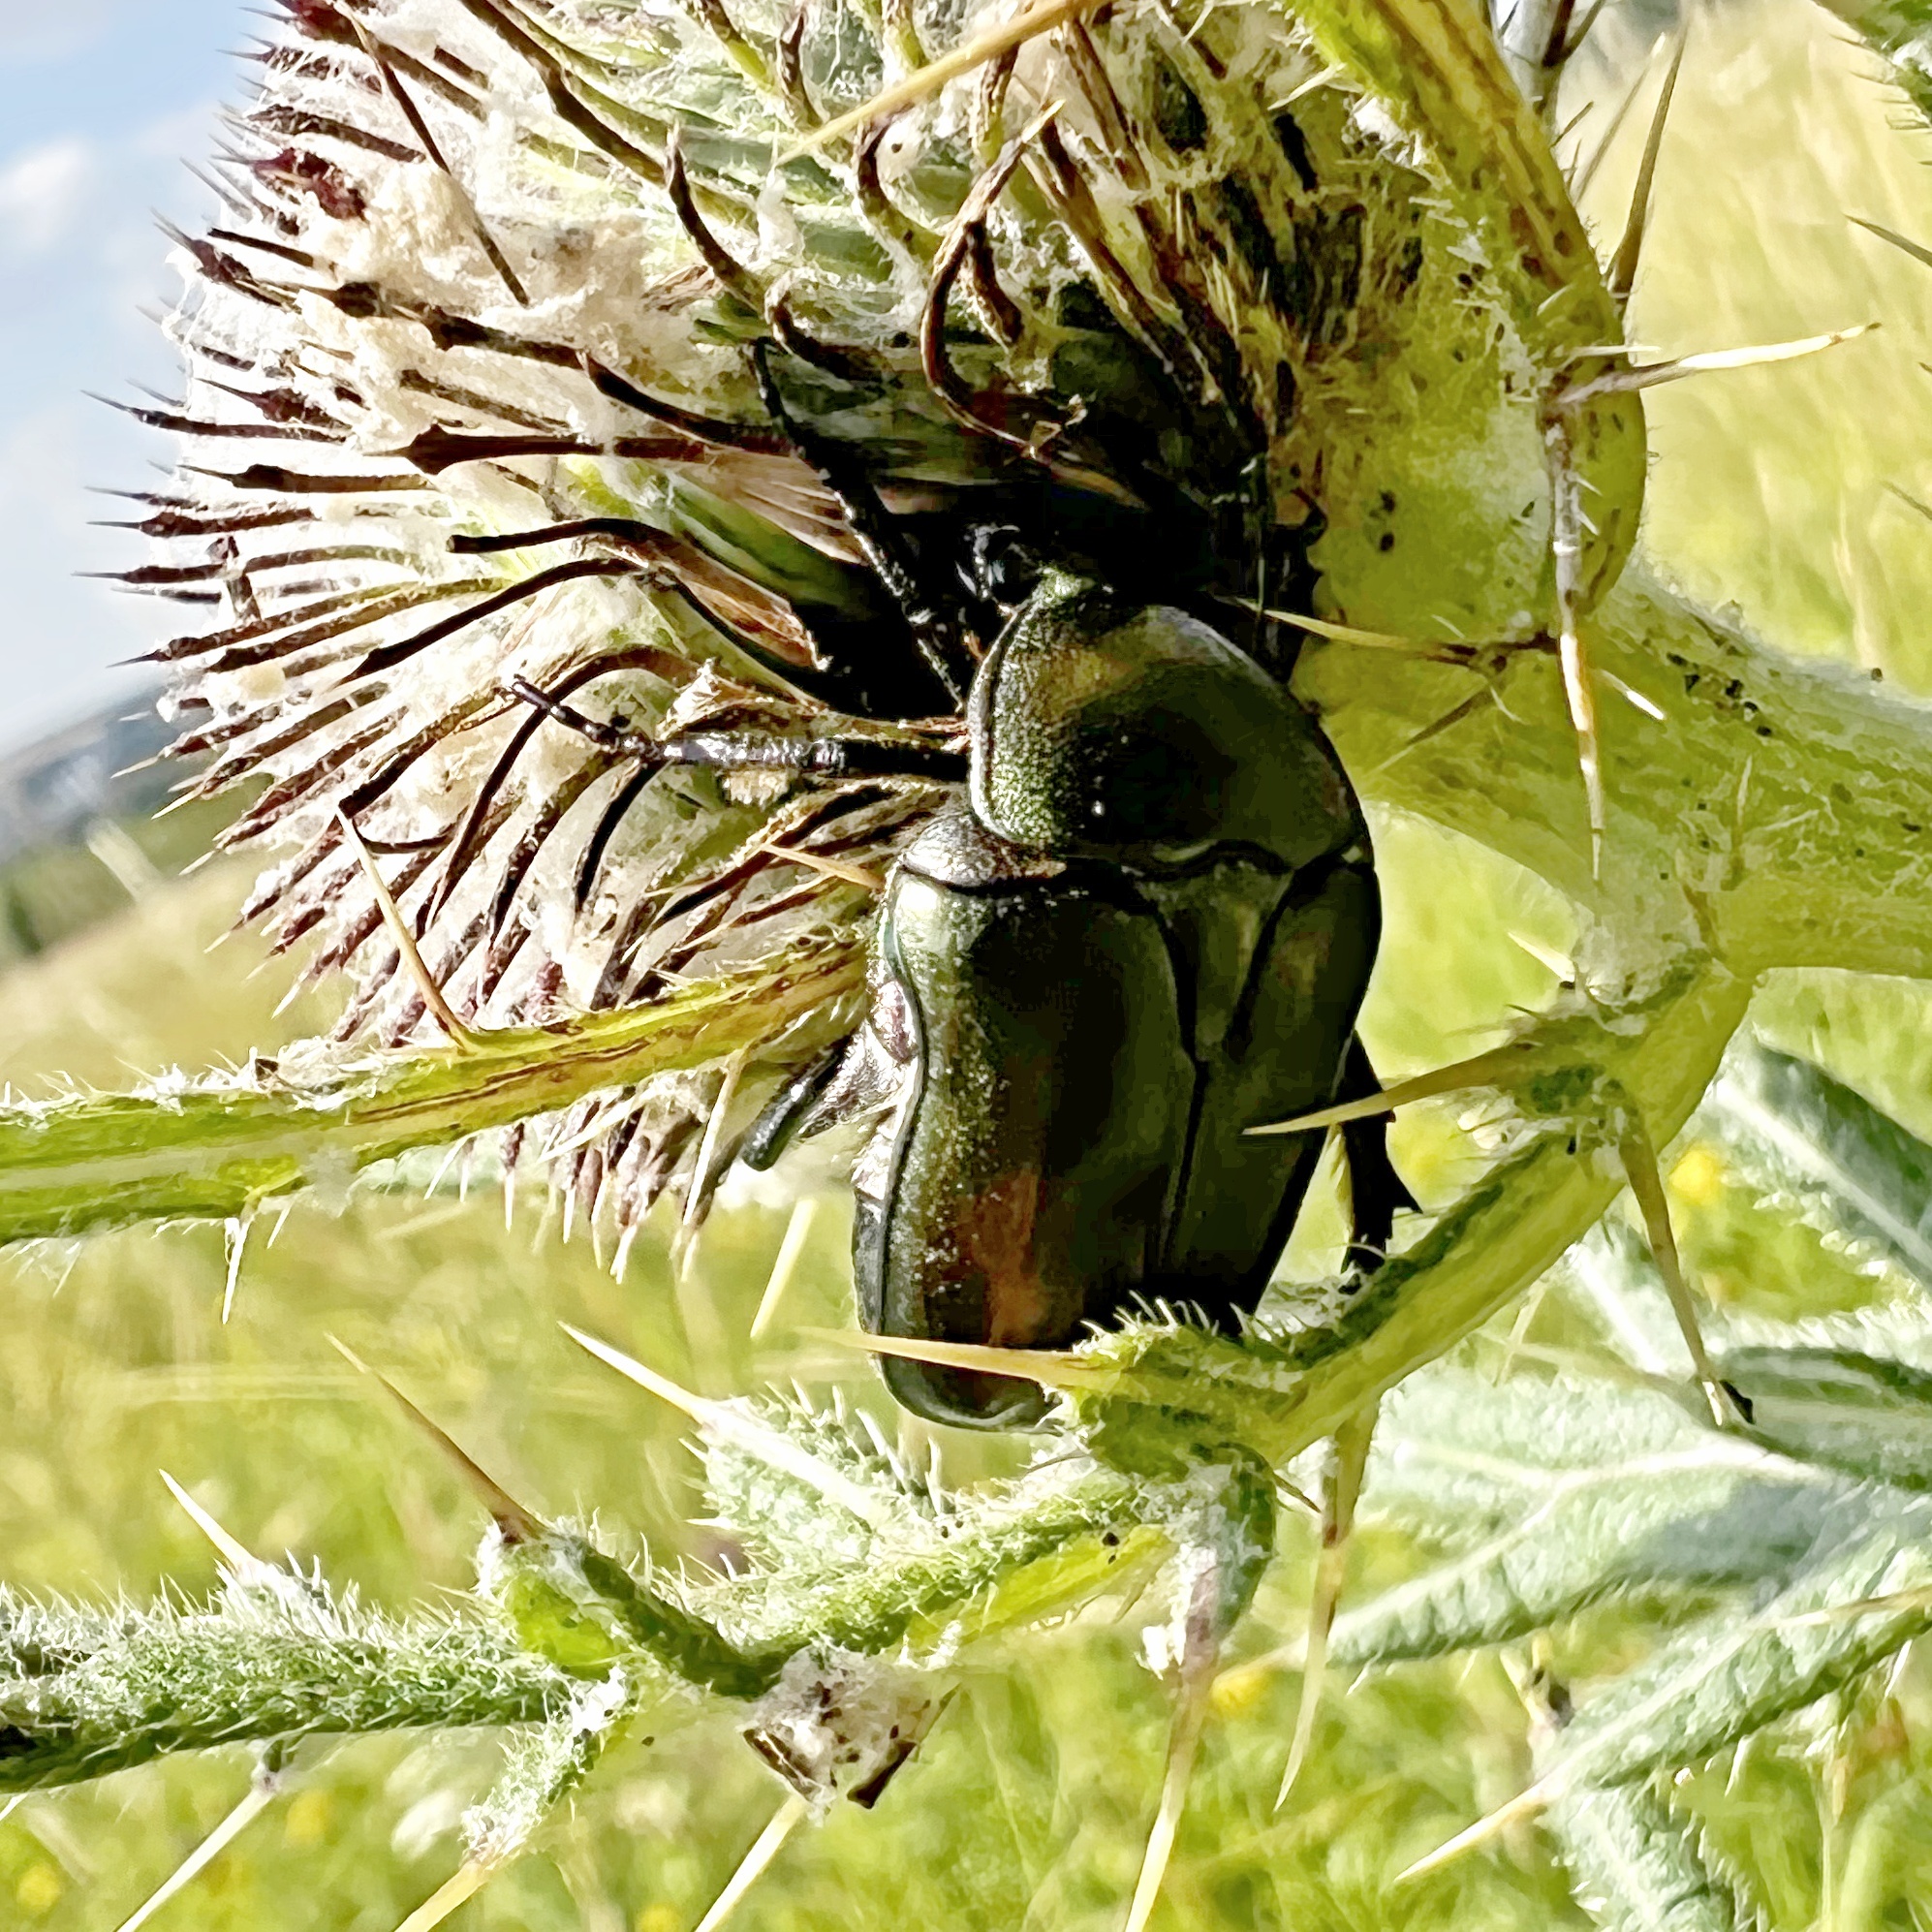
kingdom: Animalia
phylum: Arthropoda
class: Insecta
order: Coleoptera
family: Scarabaeidae
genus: Protaetia
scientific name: Protaetia cuprea
